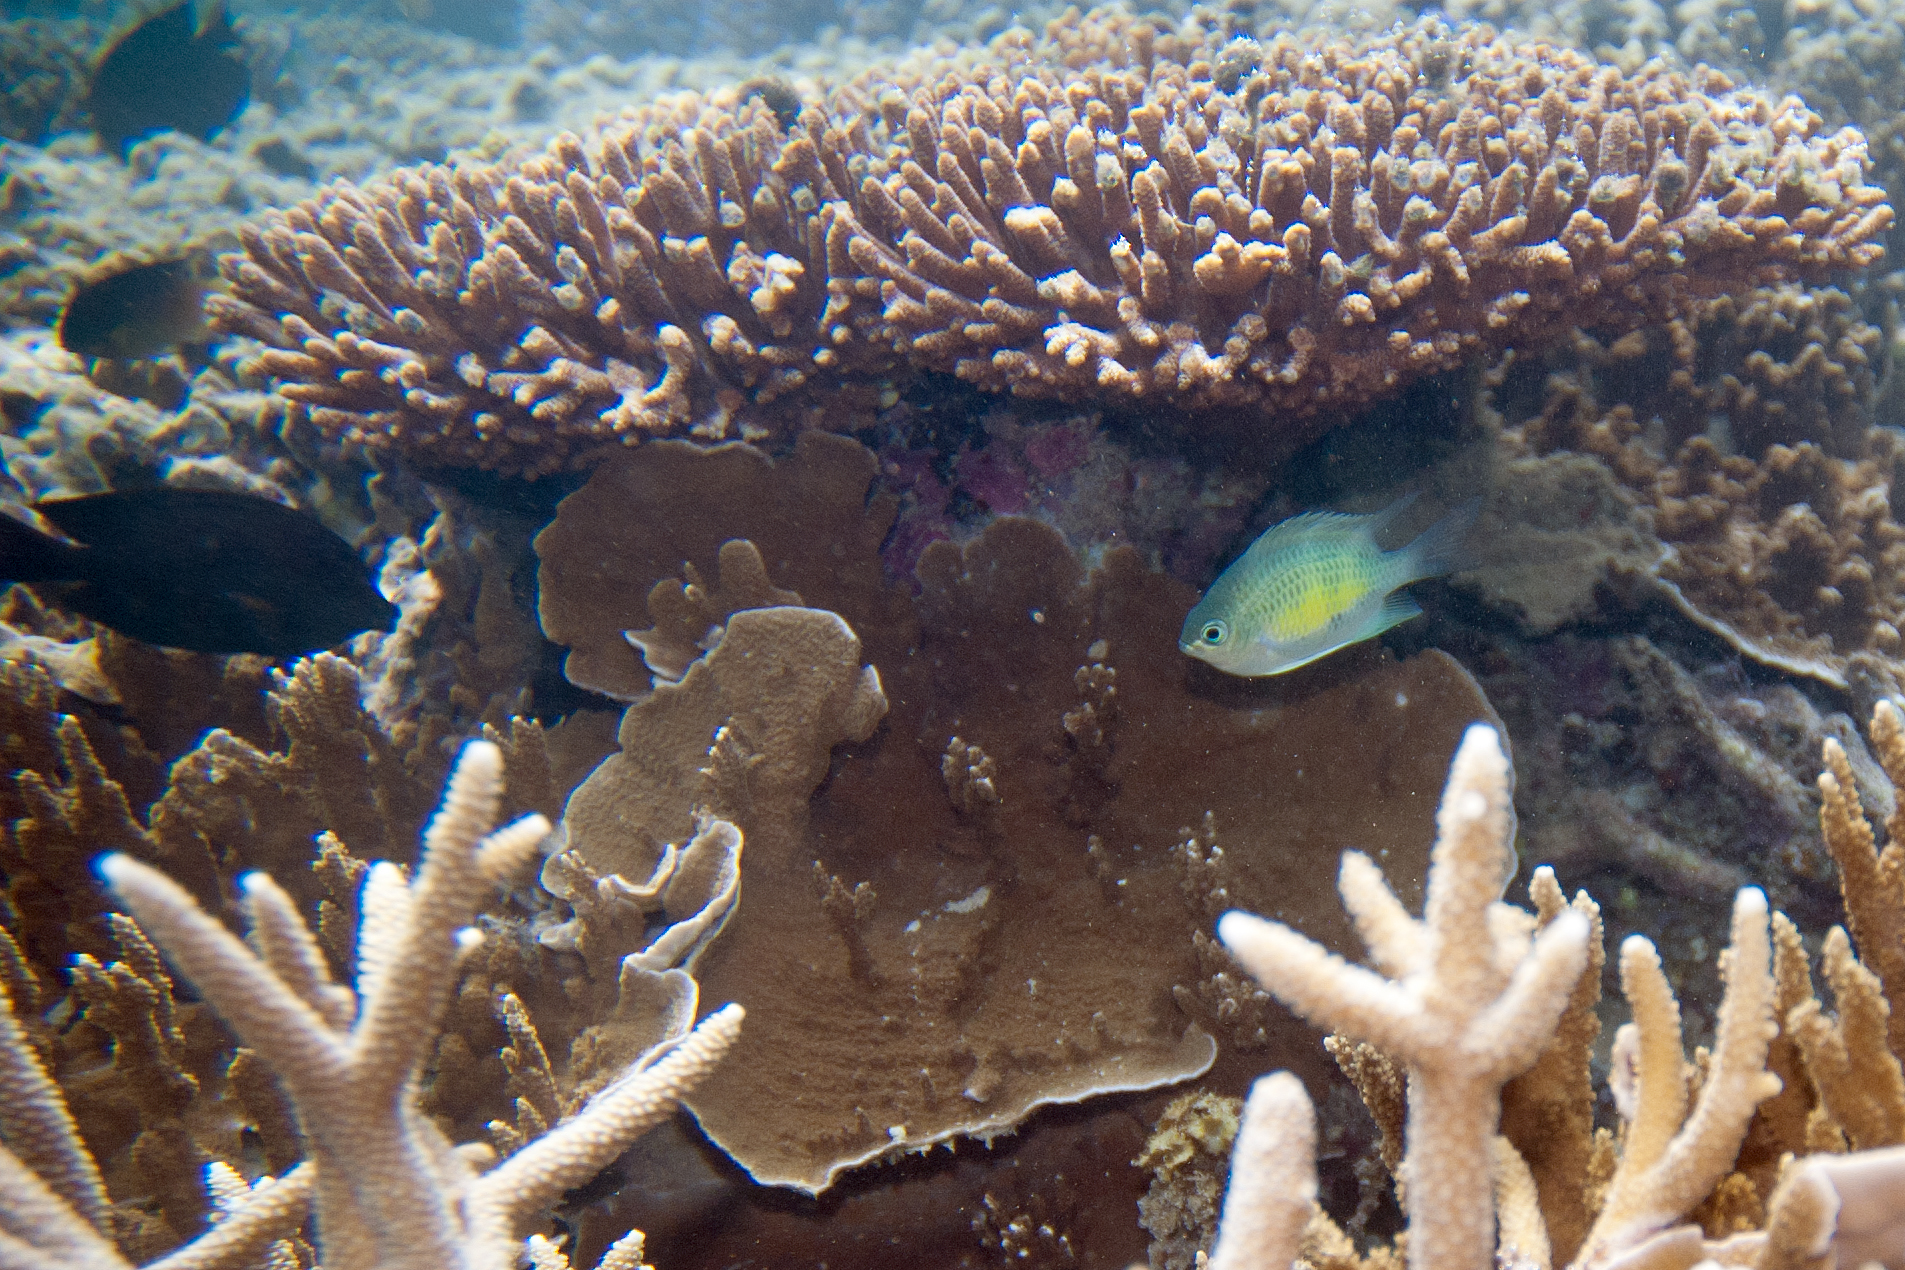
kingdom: Animalia
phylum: Chordata
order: Perciformes
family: Pomacentridae
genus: Amblyglyphidodon
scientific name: Amblyglyphidodon curacao
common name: Staghorn damsel
